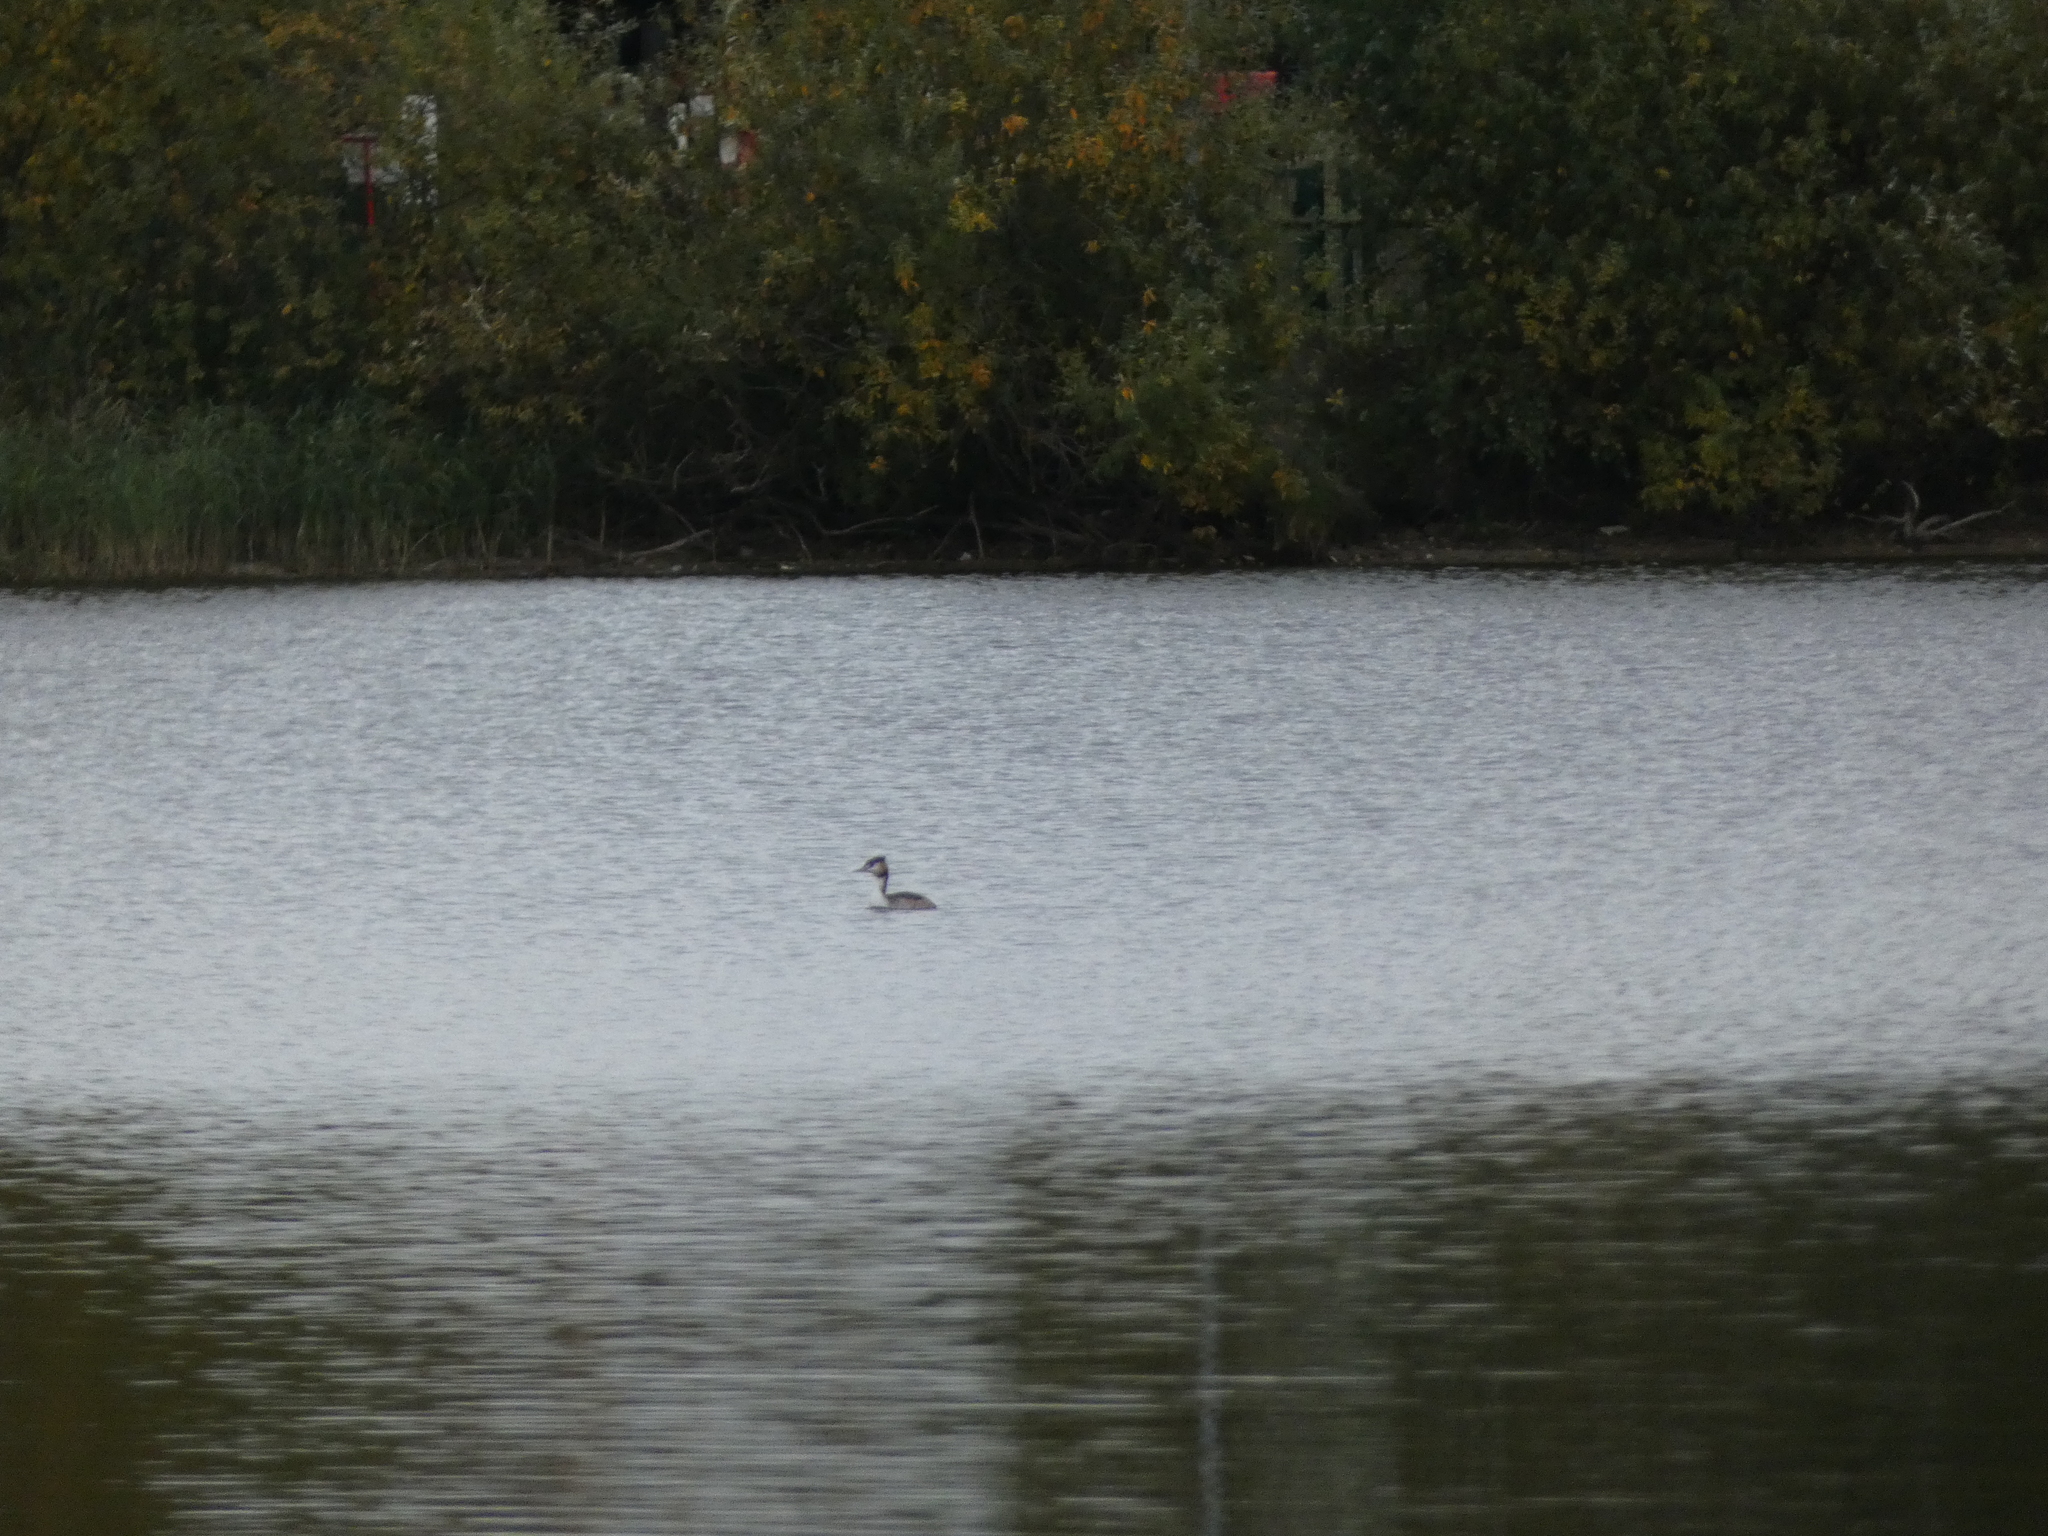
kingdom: Animalia
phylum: Chordata
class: Aves
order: Podicipediformes
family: Podicipedidae
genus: Podiceps
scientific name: Podiceps cristatus
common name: Great crested grebe
